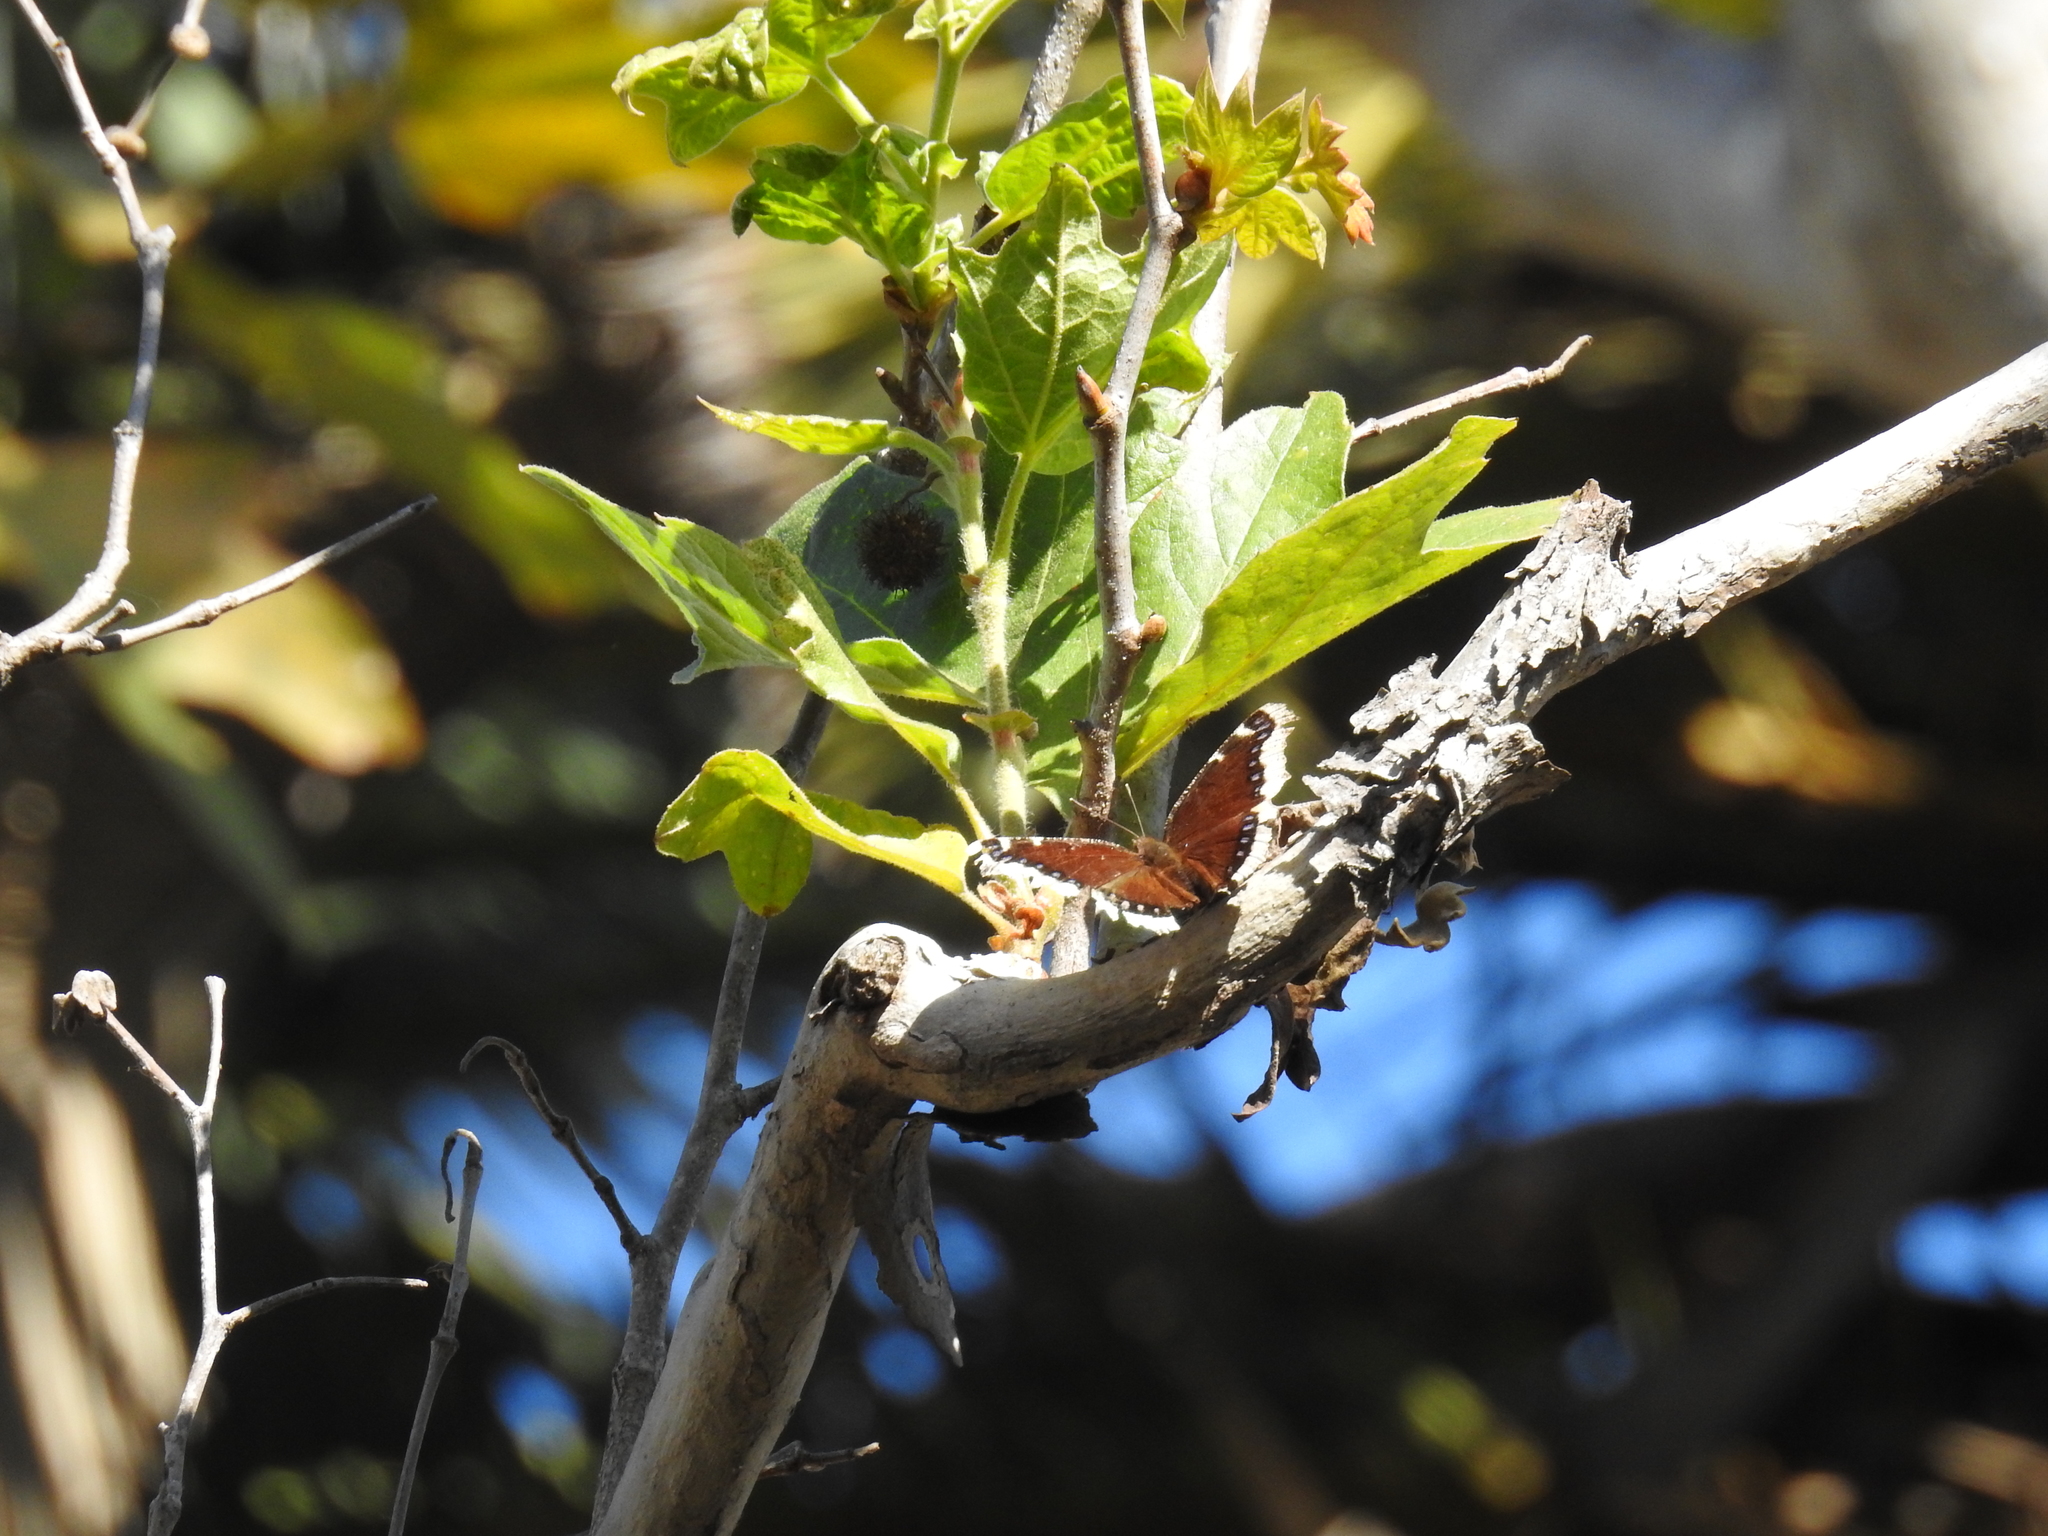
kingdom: Animalia
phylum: Arthropoda
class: Insecta
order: Lepidoptera
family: Nymphalidae
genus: Nymphalis
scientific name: Nymphalis antiopa
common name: Camberwell beauty
